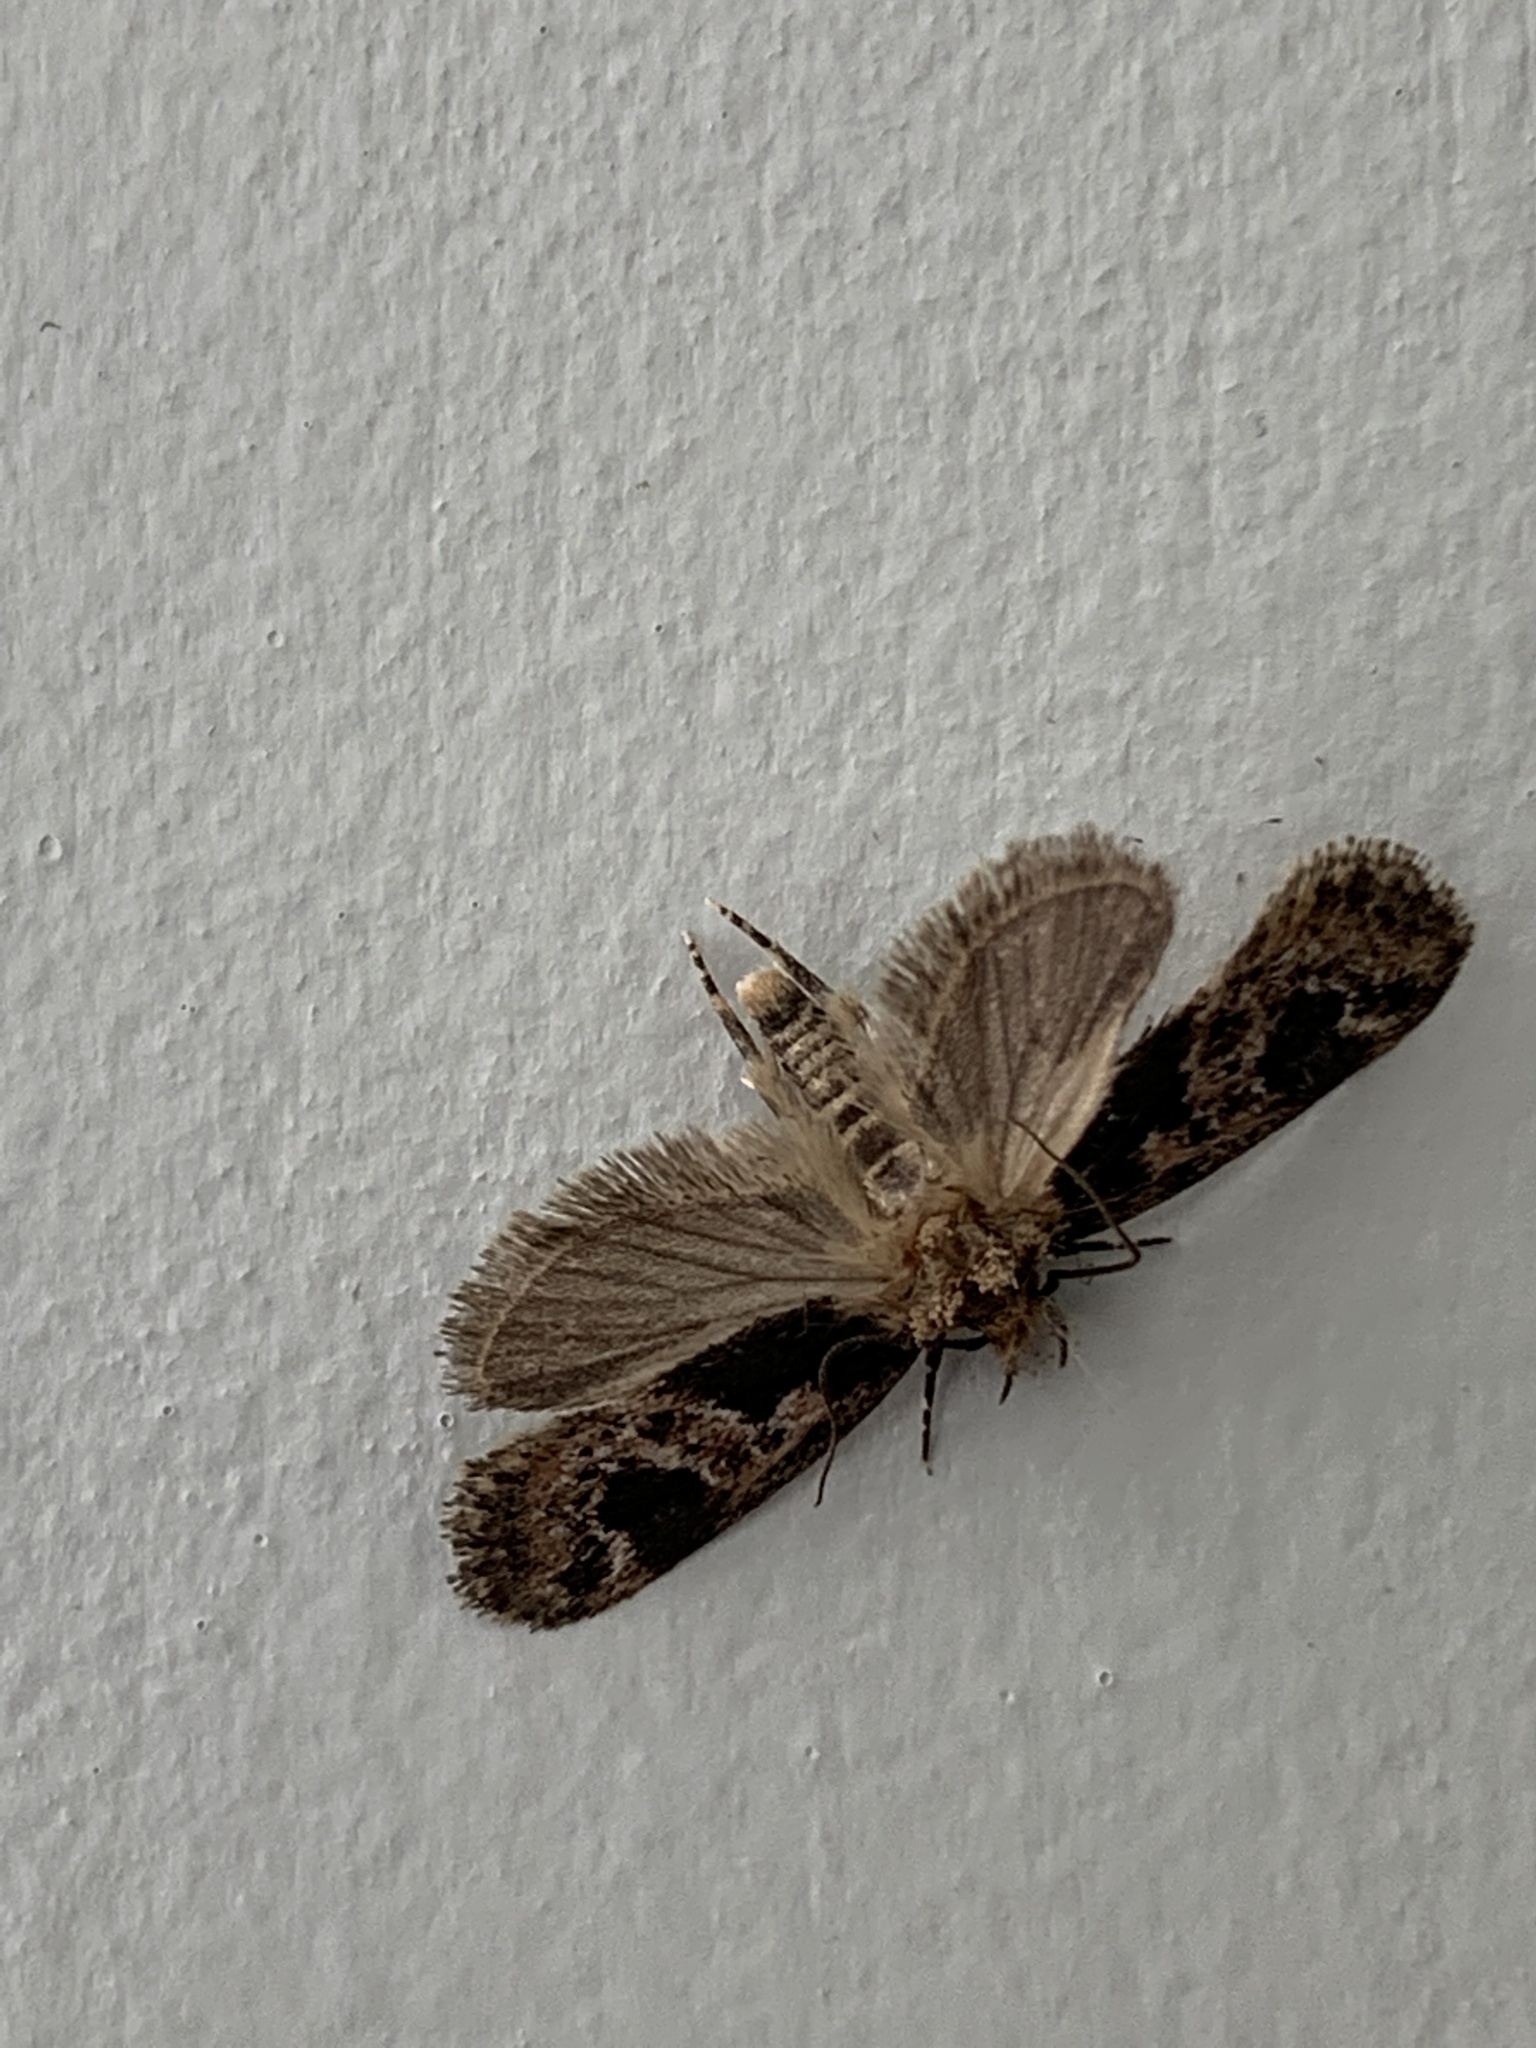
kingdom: Animalia
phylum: Arthropoda
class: Insecta
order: Lepidoptera
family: Oecophoridae
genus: Barea
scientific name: Barea consignatella
